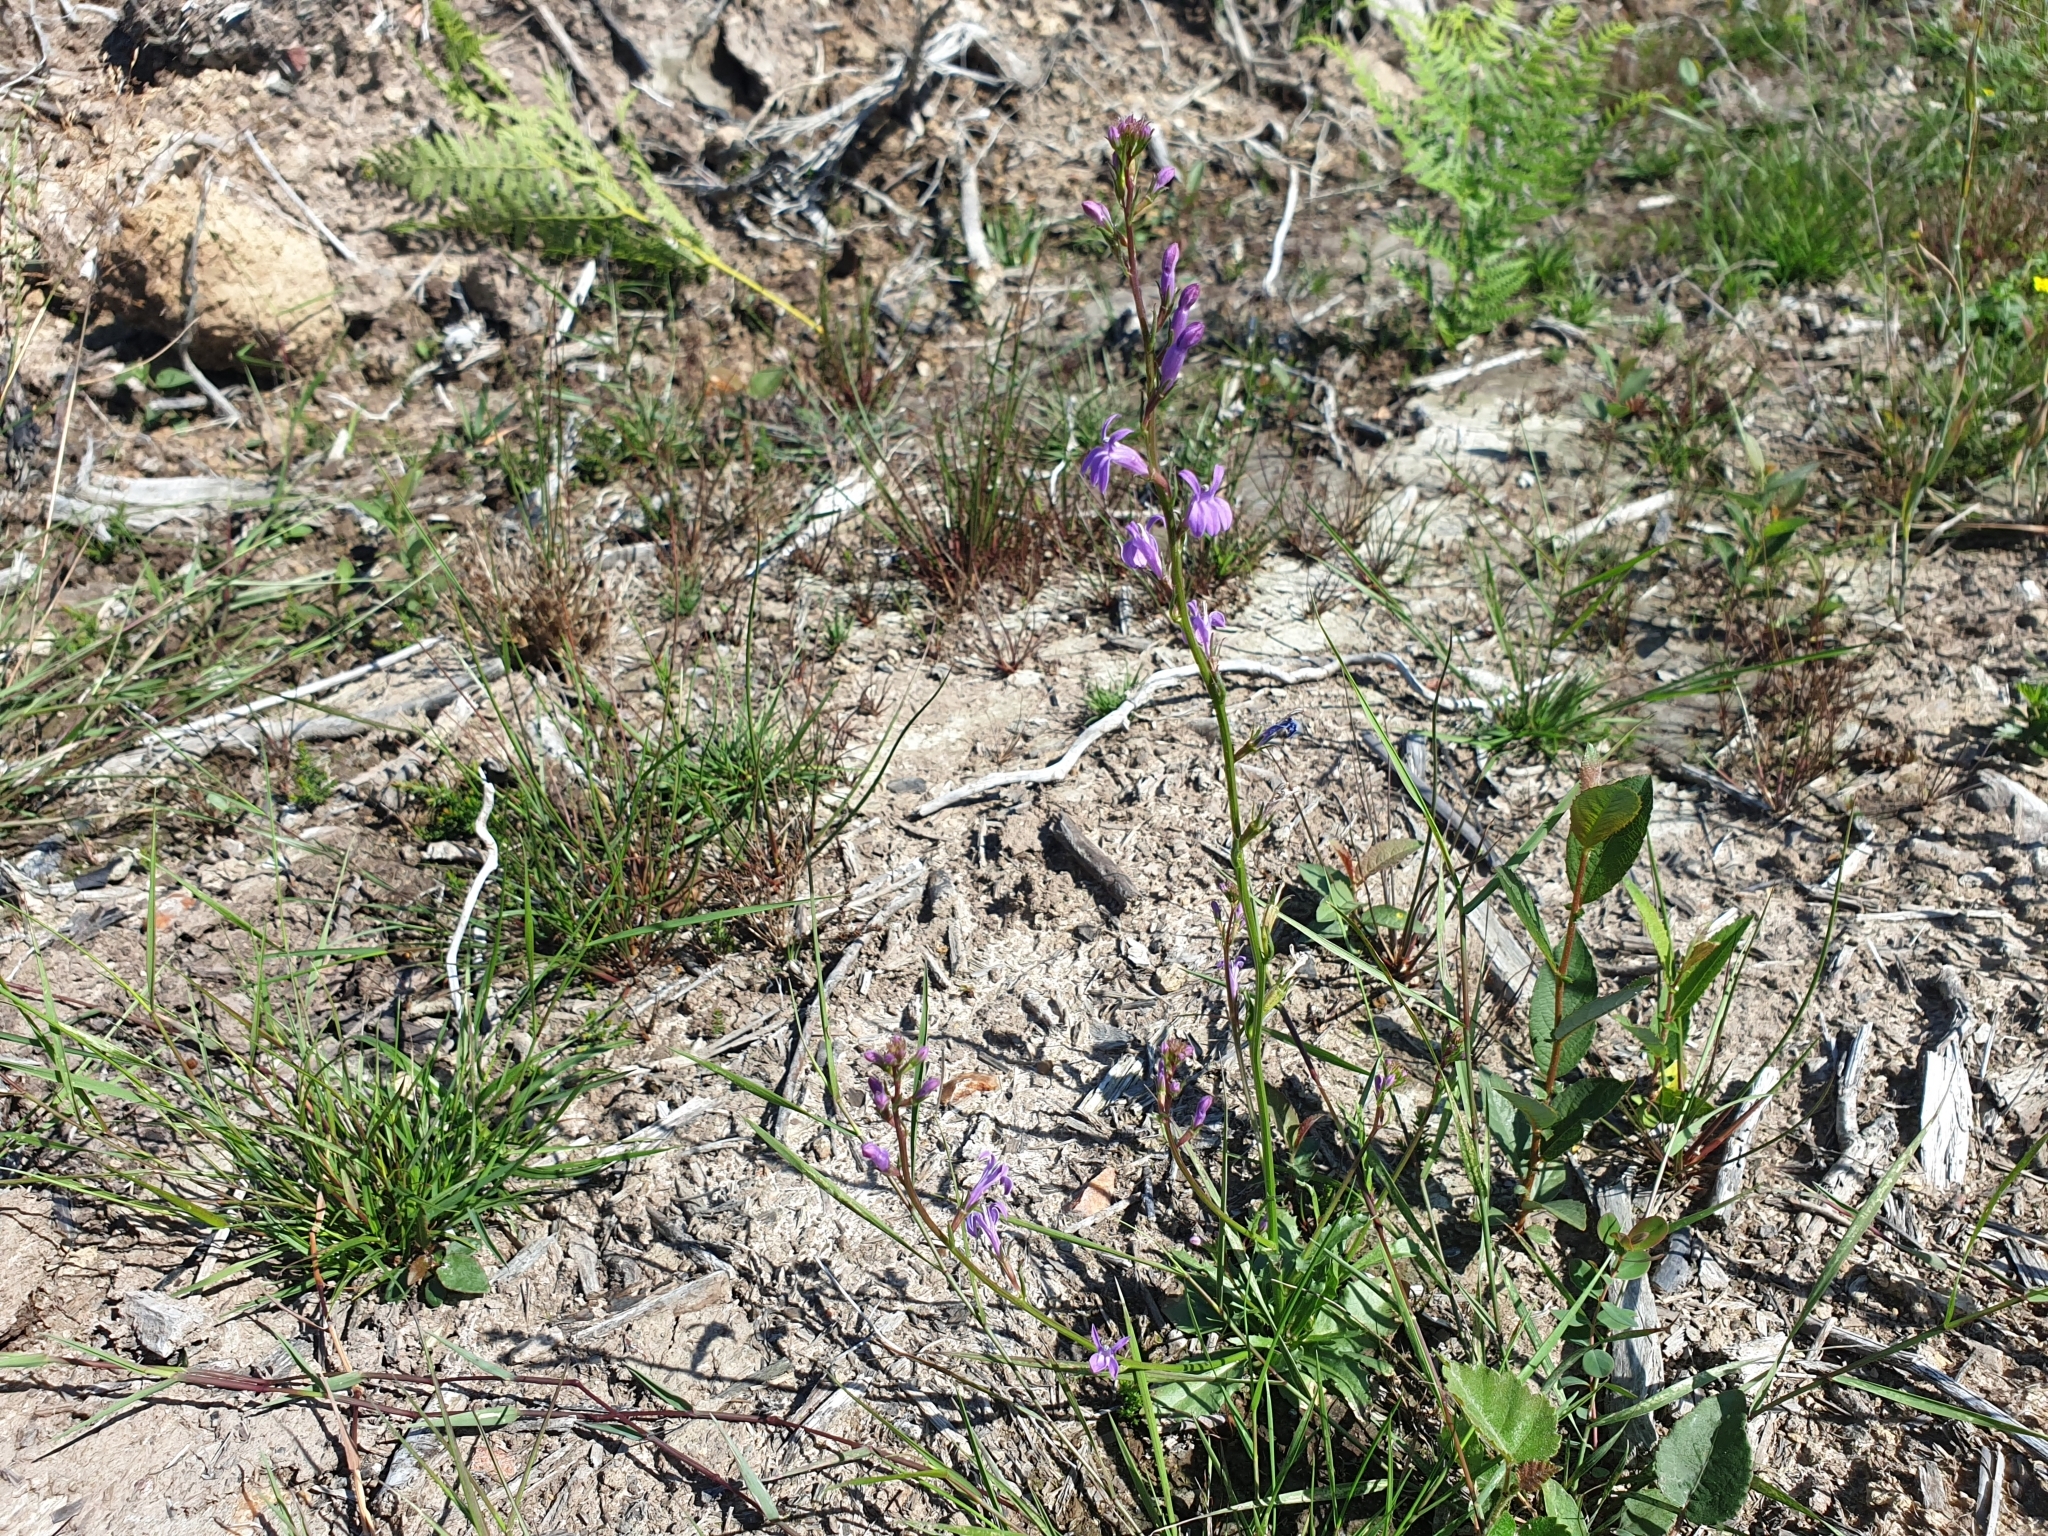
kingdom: Plantae
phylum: Tracheophyta
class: Magnoliopsida
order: Asterales
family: Campanulaceae
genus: Lobelia
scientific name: Lobelia urens
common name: Heath lobelia
